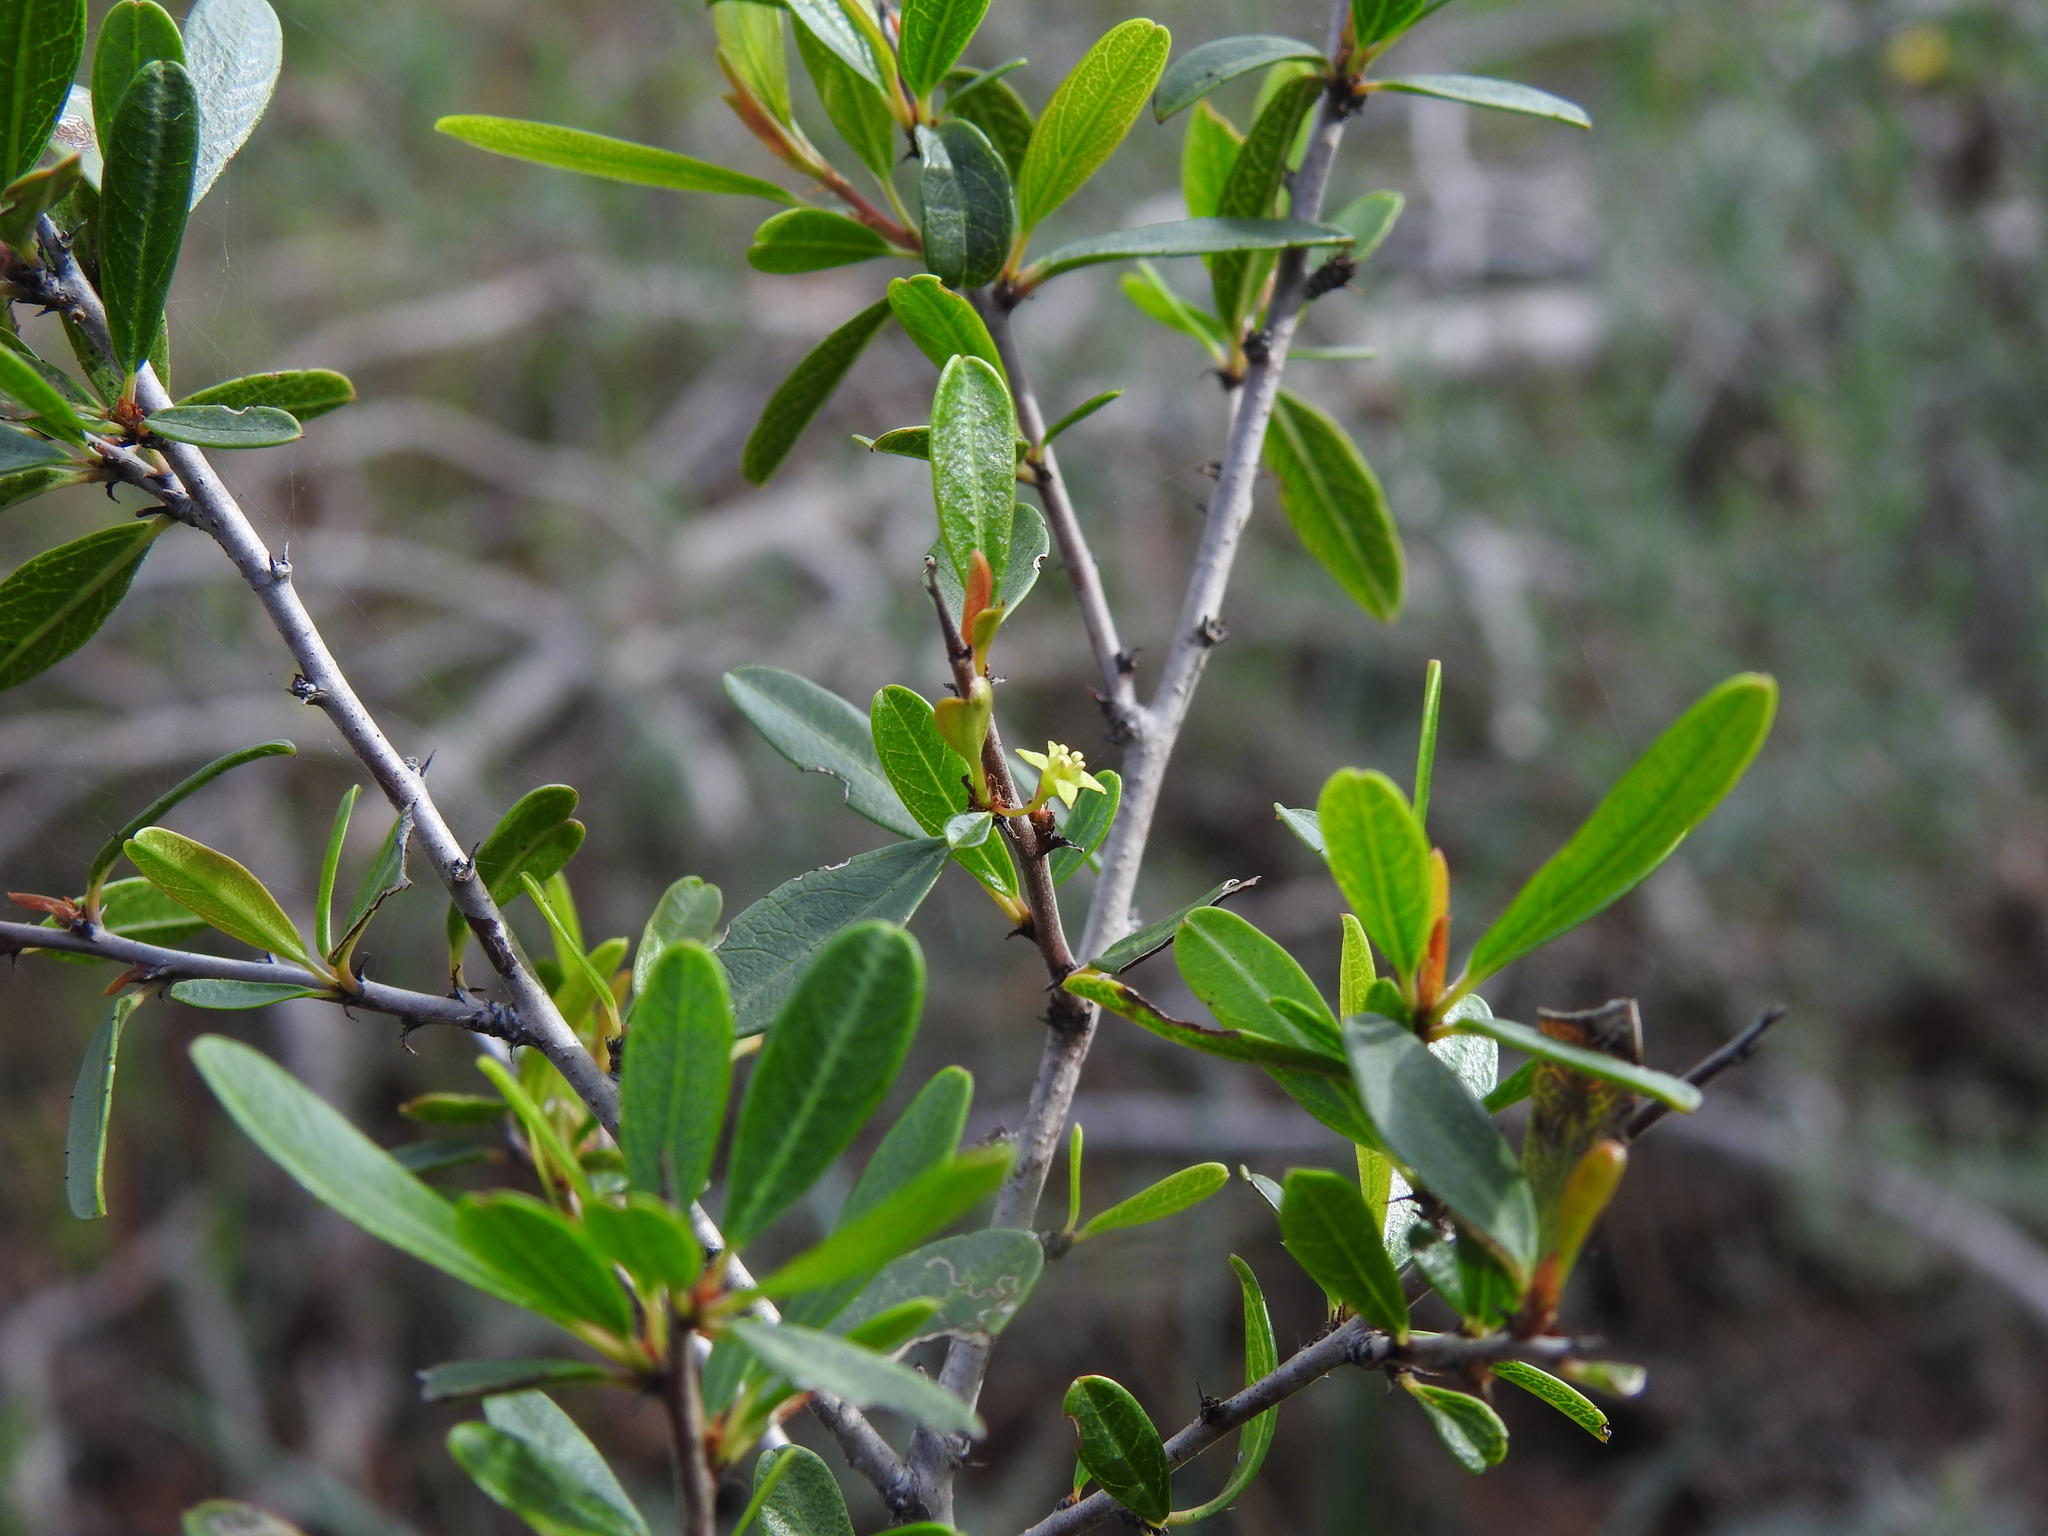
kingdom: Plantae
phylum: Tracheophyta
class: Magnoliopsida
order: Rosales
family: Rhamnaceae
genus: Rhamnus
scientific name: Rhamnus oleoides
